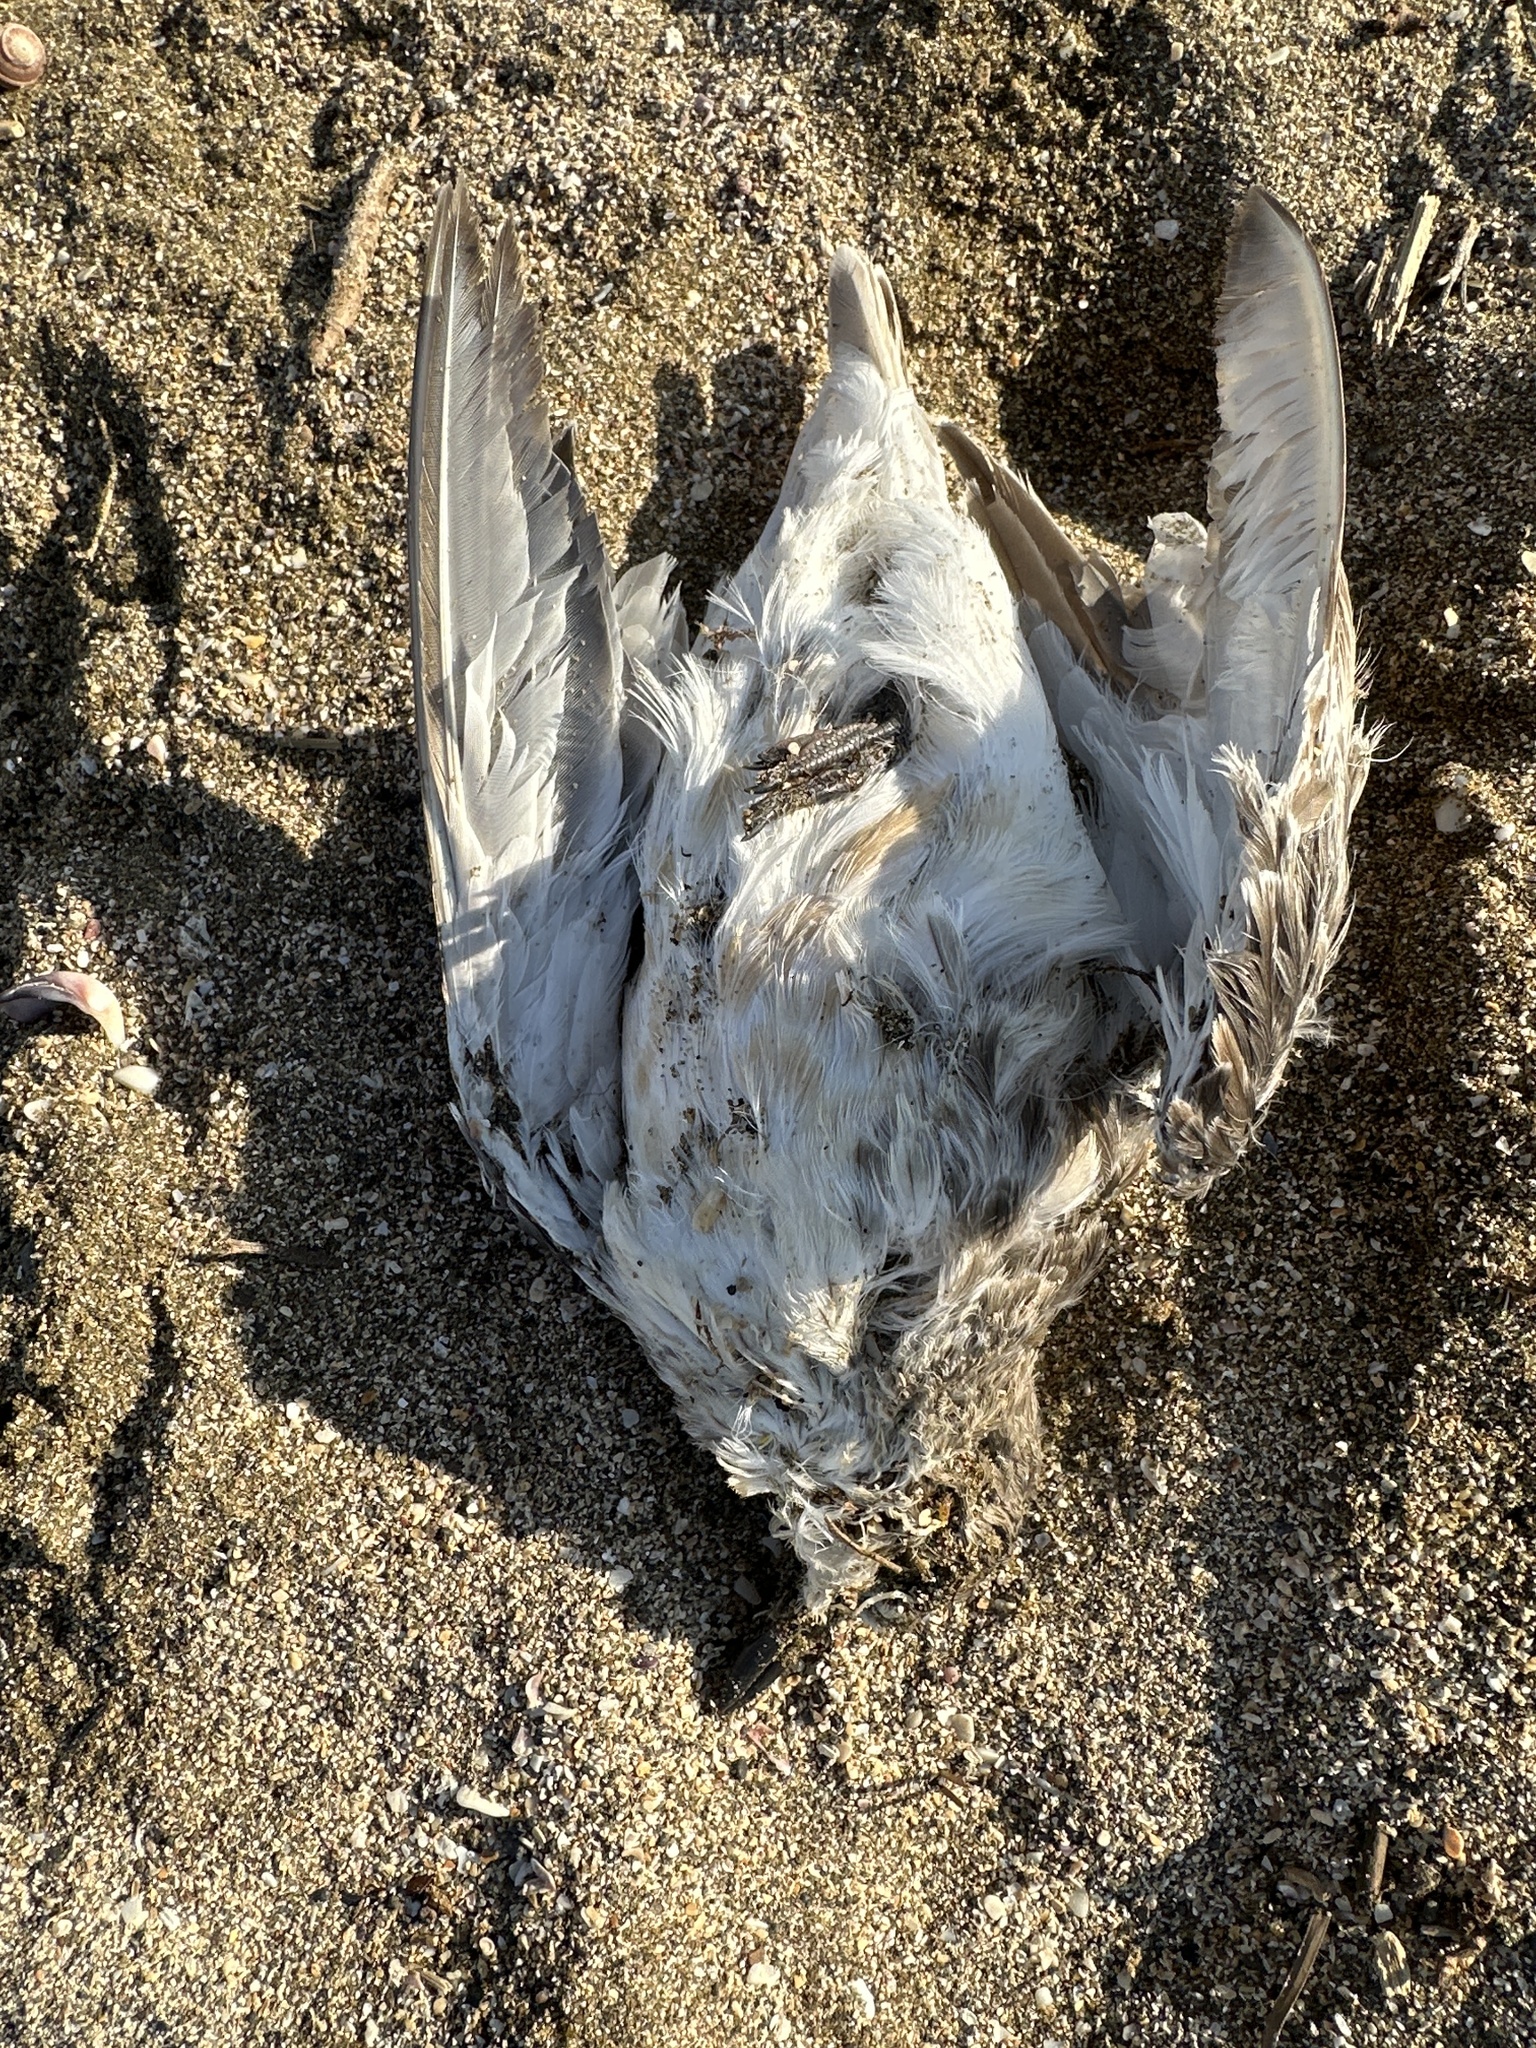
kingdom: Animalia
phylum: Chordata
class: Aves
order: Charadriiformes
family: Charadriidae
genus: Anarhynchus
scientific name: Anarhynchus
